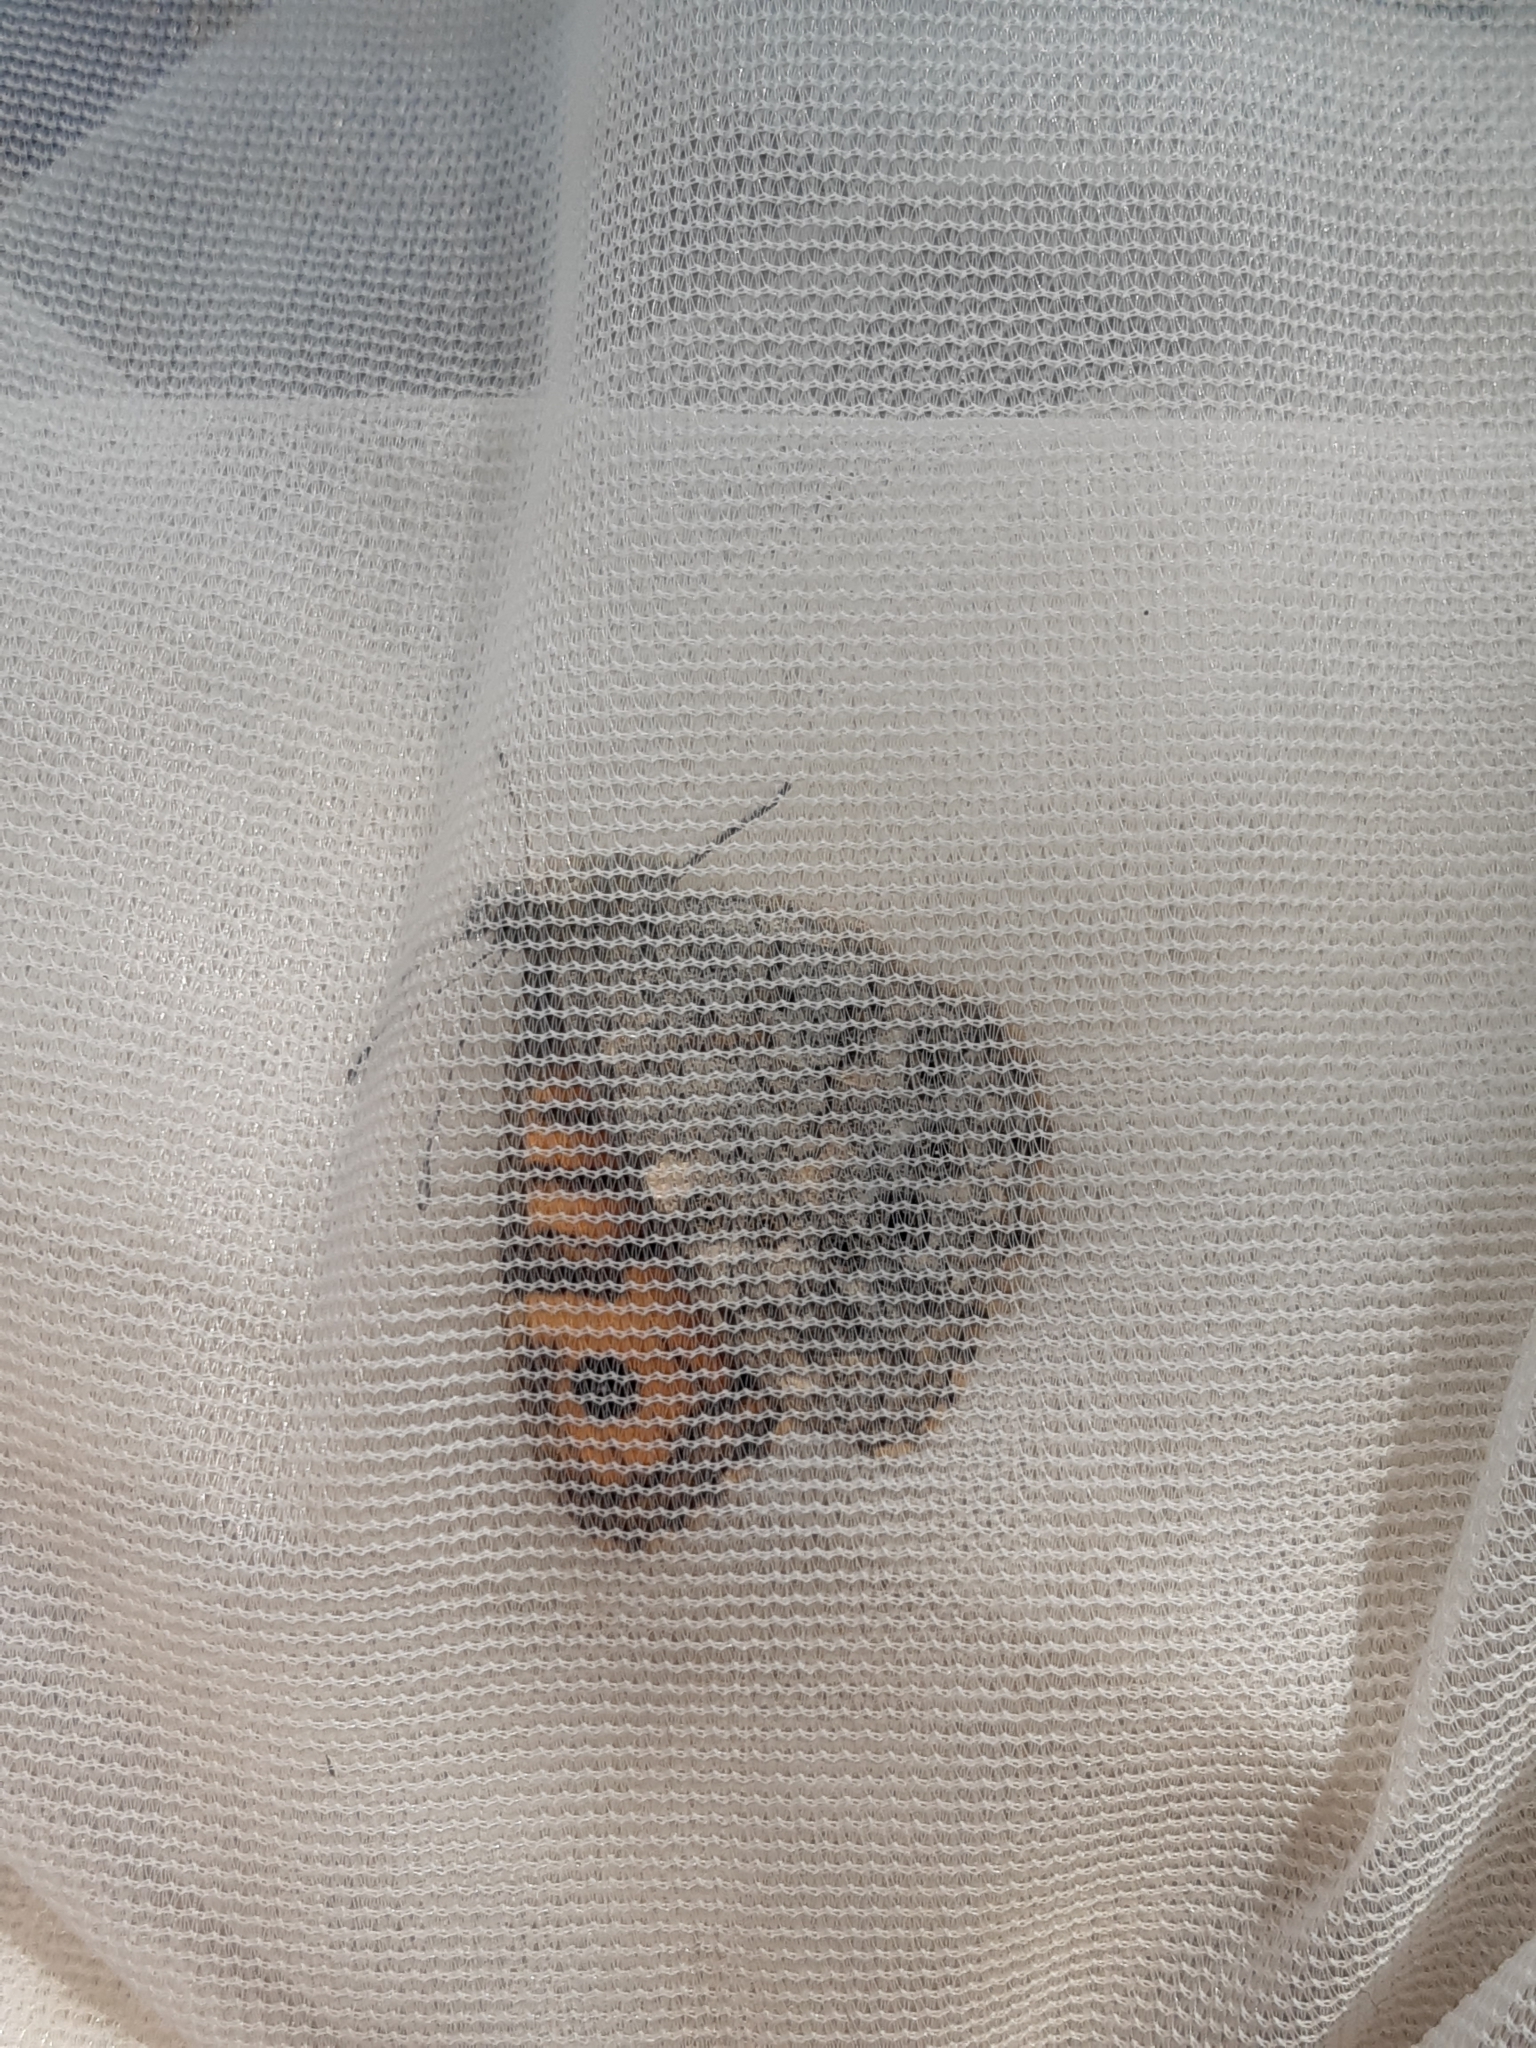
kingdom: Animalia
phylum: Arthropoda
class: Insecta
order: Lepidoptera
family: Nymphalidae
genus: Pararge
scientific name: Pararge Lasiommata megera
